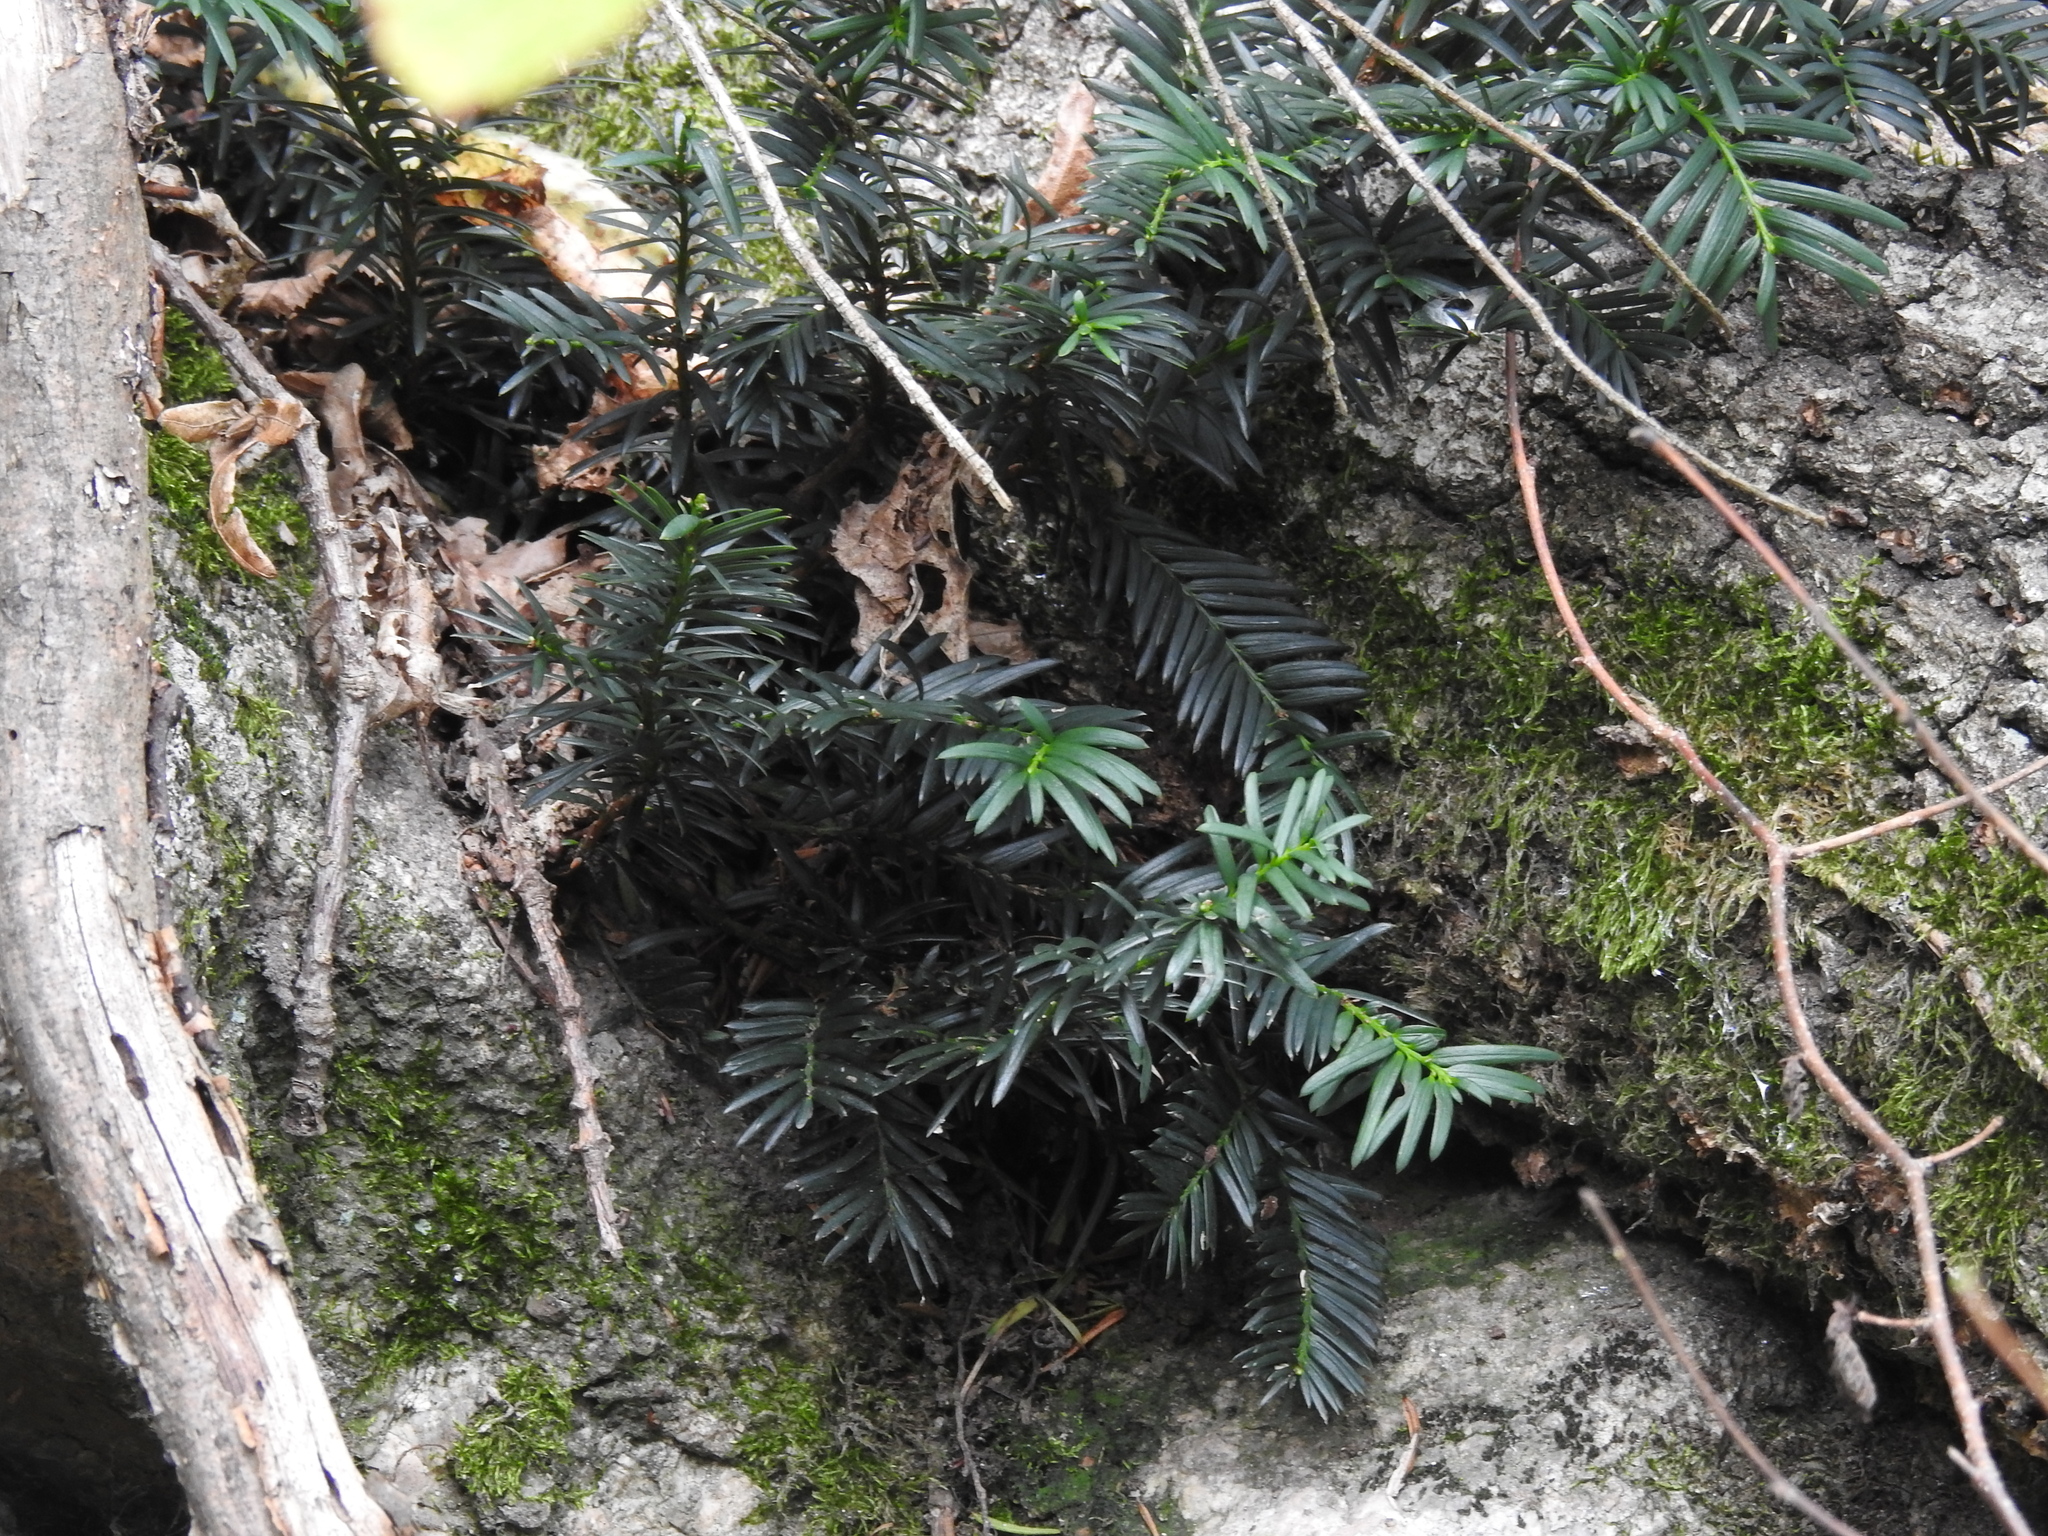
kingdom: Plantae
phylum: Tracheophyta
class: Pinopsida
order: Pinales
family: Taxaceae
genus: Taxus
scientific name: Taxus baccata
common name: Yew
